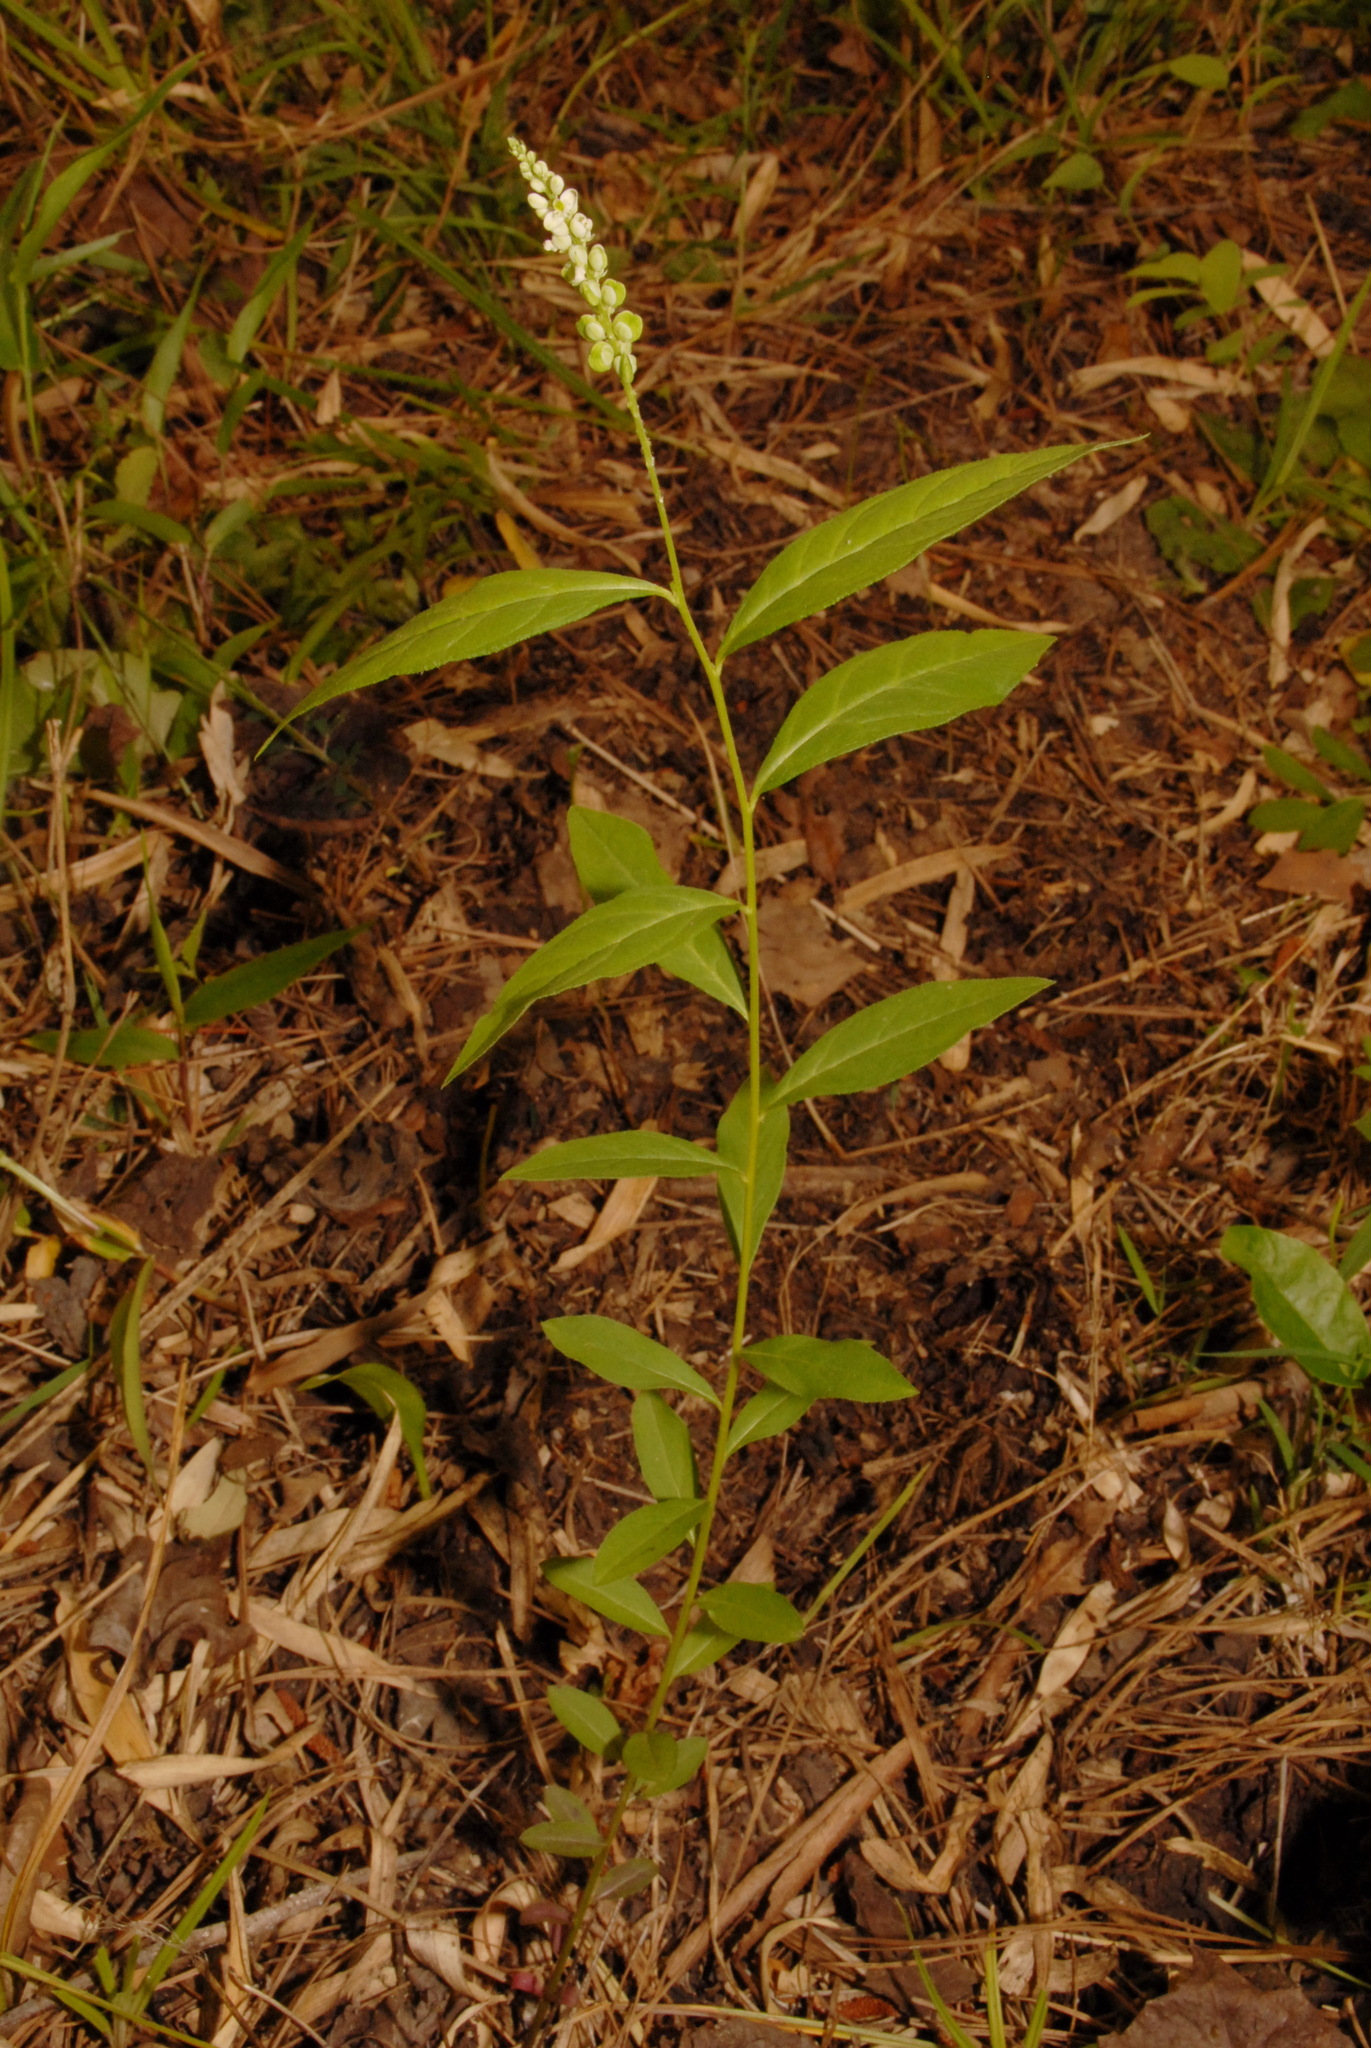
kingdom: Plantae
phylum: Tracheophyta
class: Magnoliopsida
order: Fabales
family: Polygalaceae
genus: Polygala
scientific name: Polygala senega
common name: Seneca snakeroot
